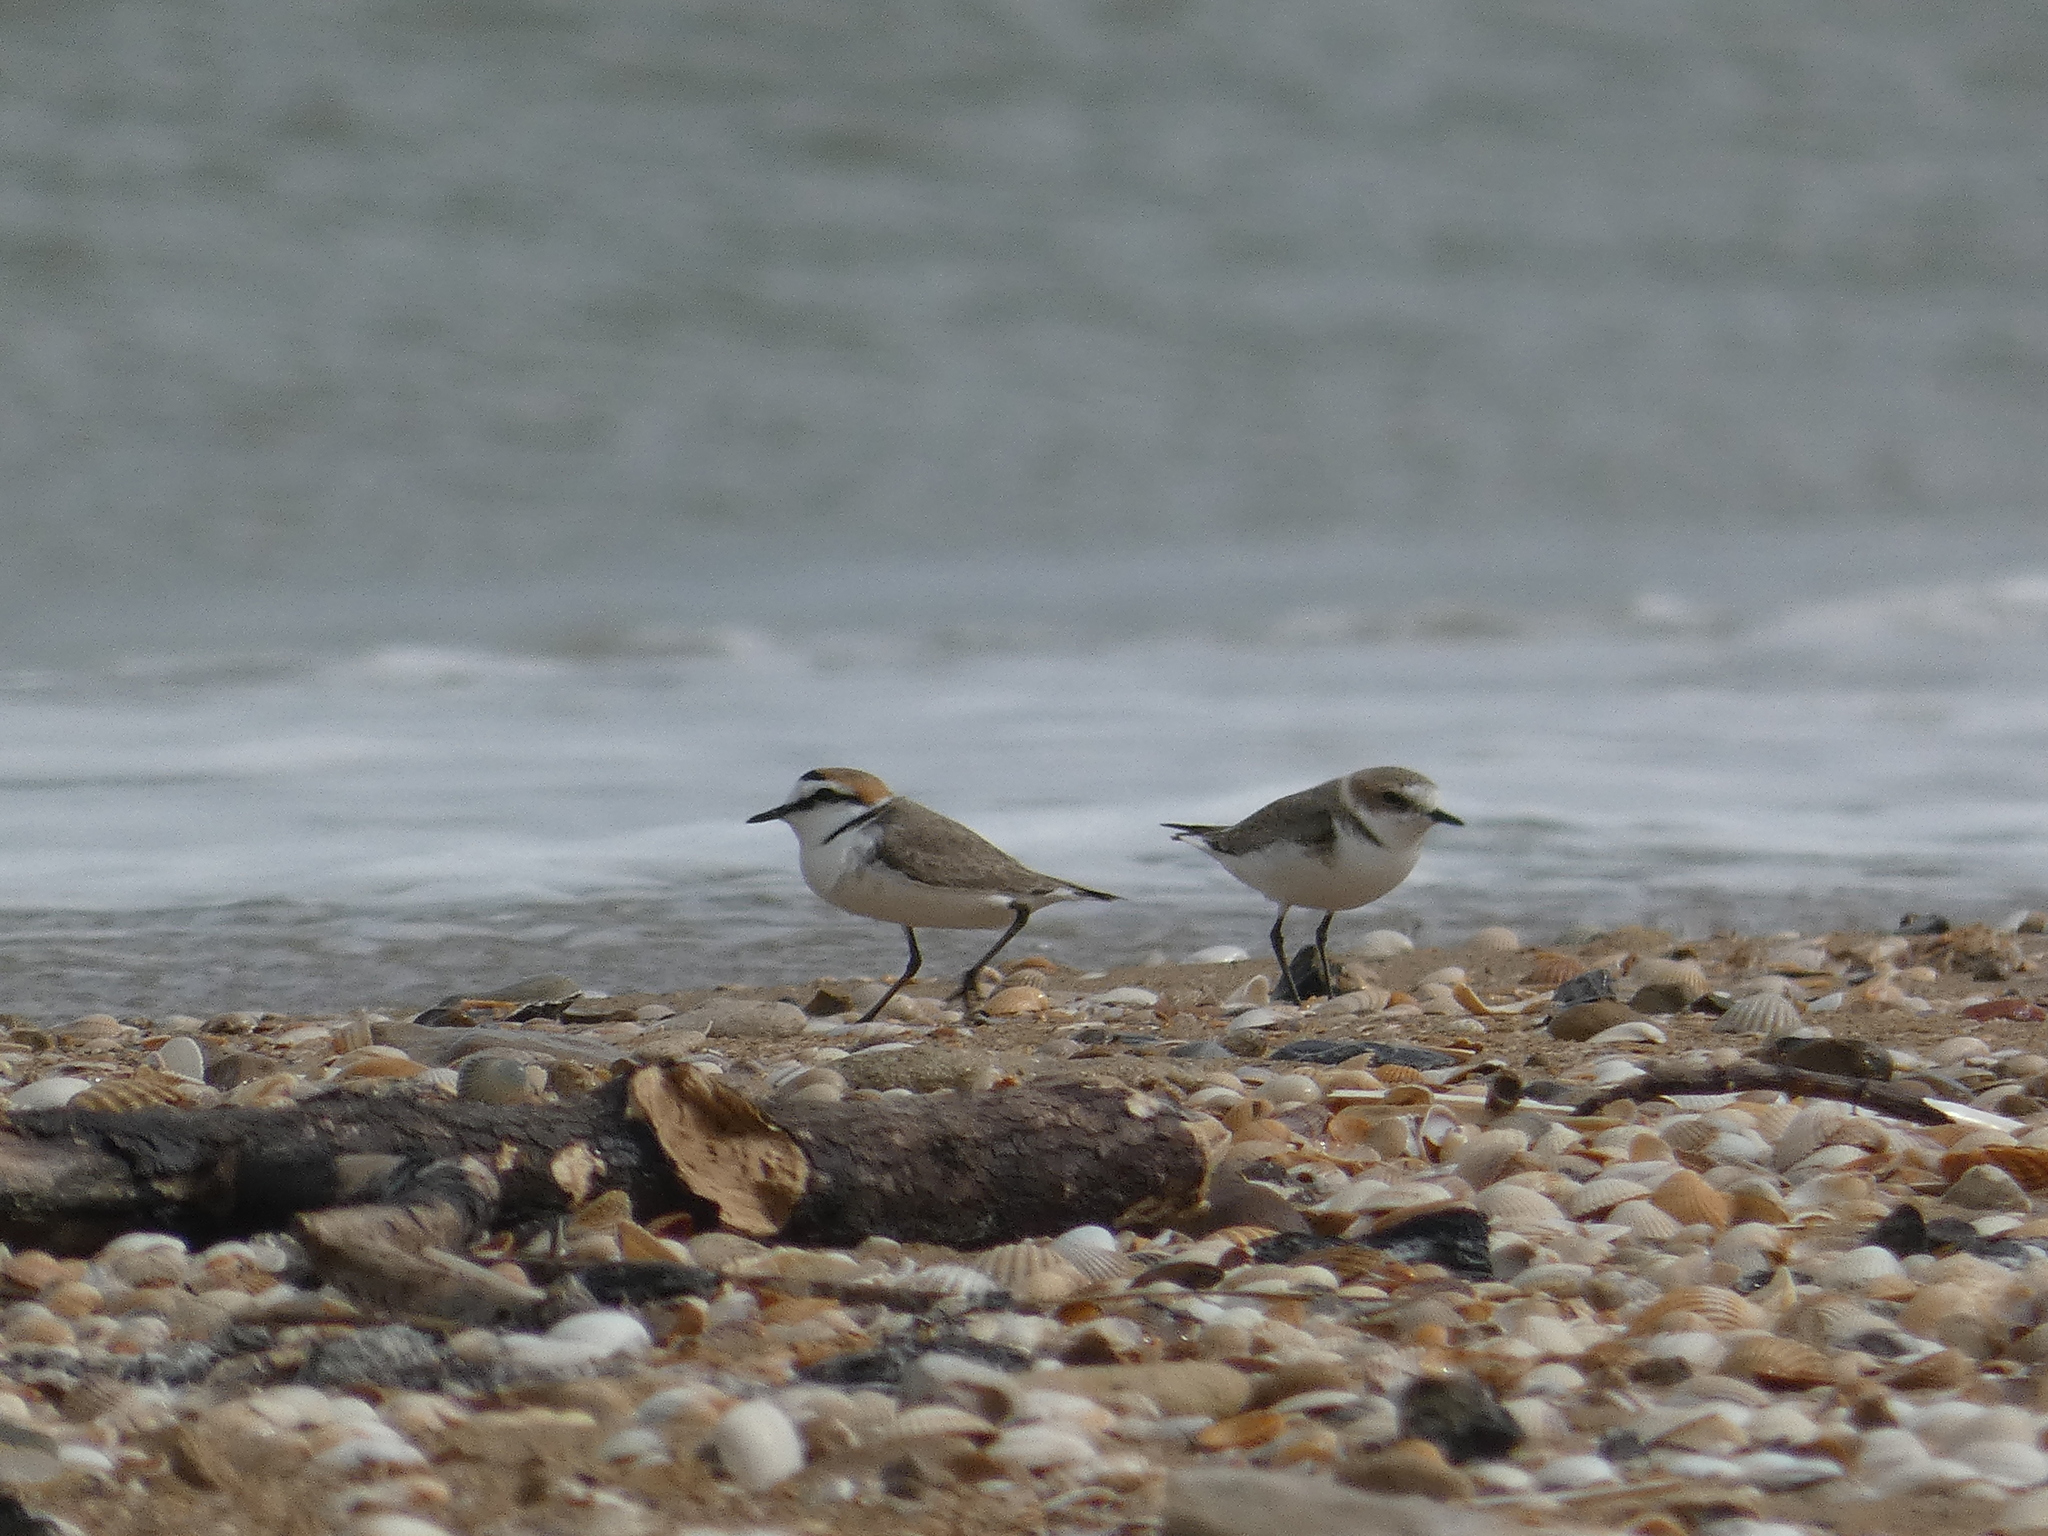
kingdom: Animalia
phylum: Chordata
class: Aves
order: Charadriiformes
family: Charadriidae
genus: Charadrius
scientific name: Charadrius alexandrinus
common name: Kentish plover
